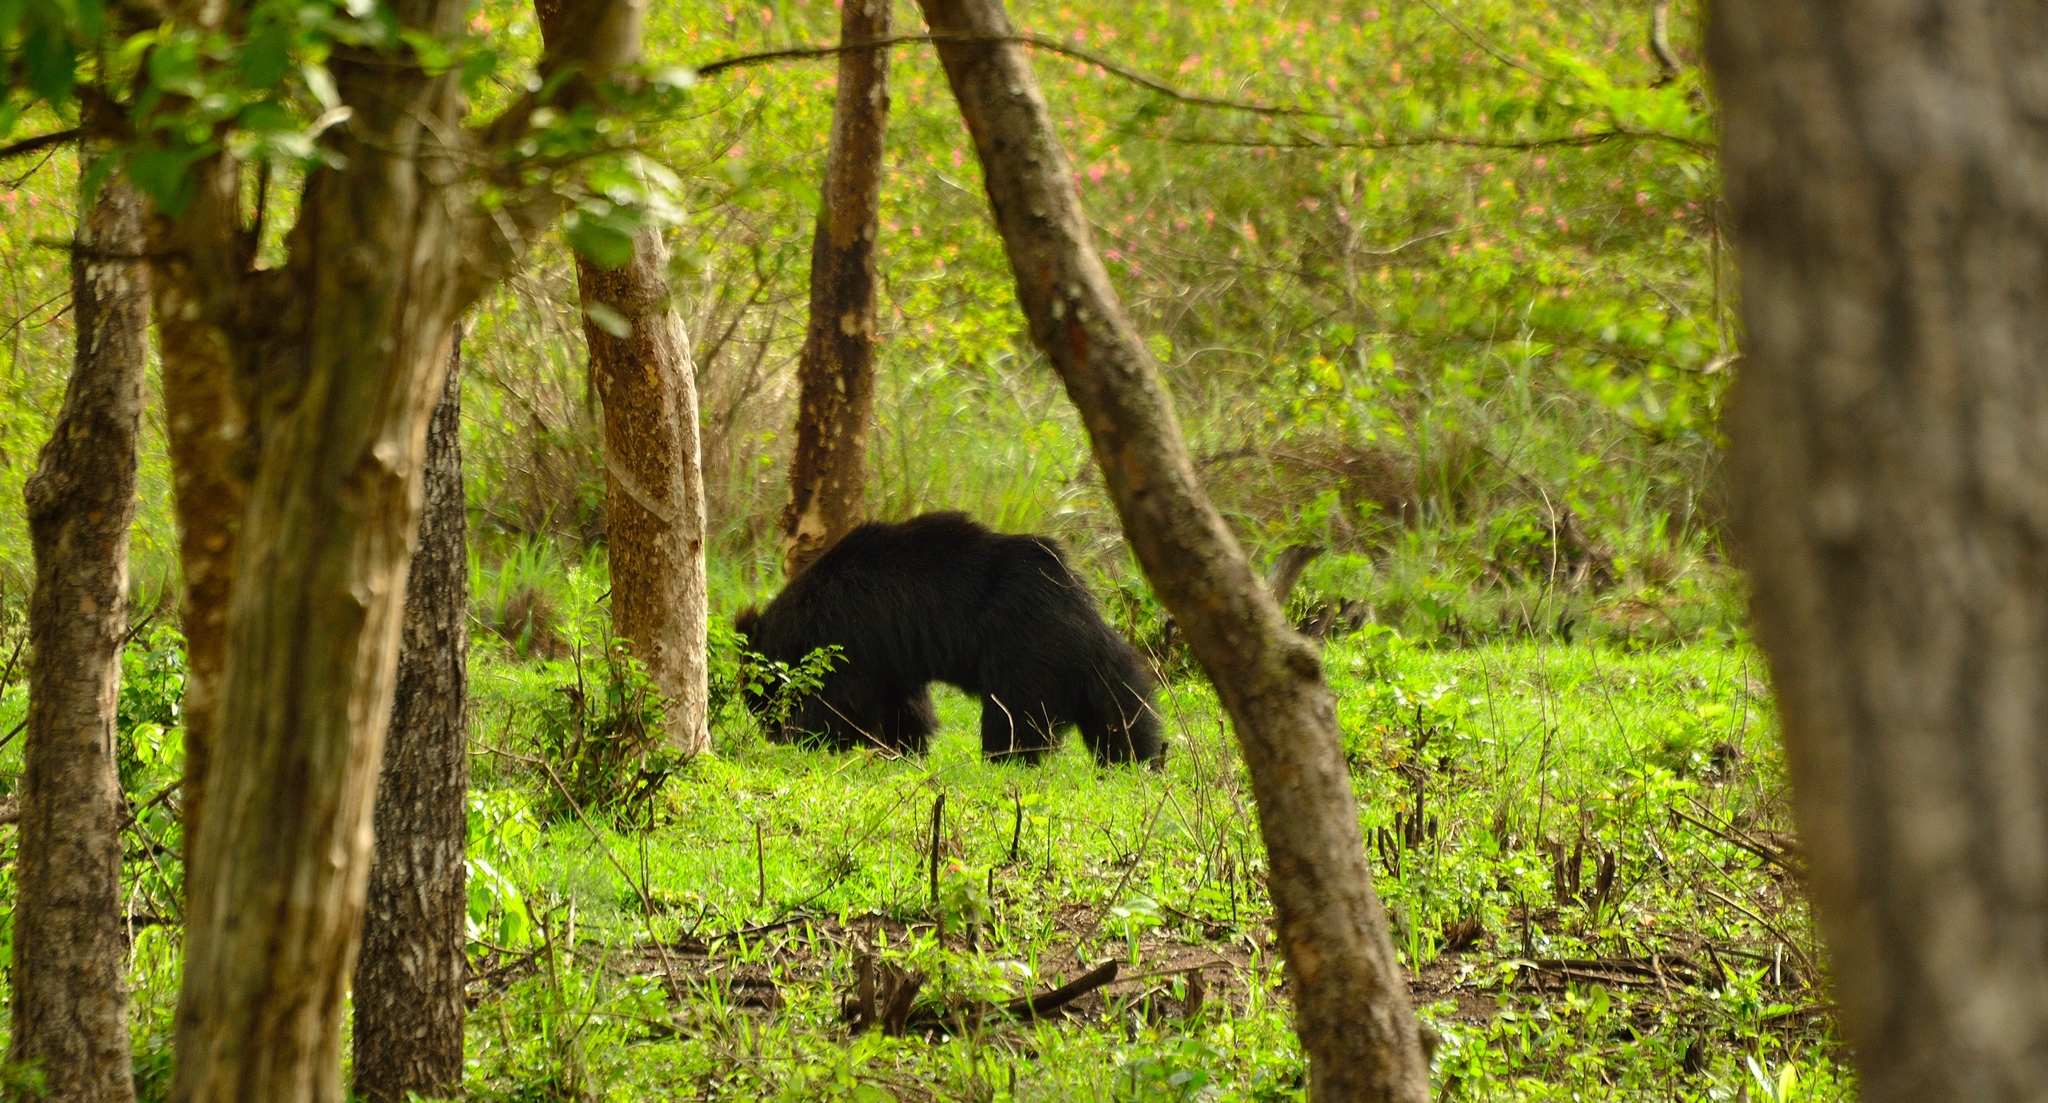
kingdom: Animalia
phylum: Chordata
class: Mammalia
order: Carnivora
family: Ursidae
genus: Melursus
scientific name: Melursus ursinus
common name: Sloth bear
